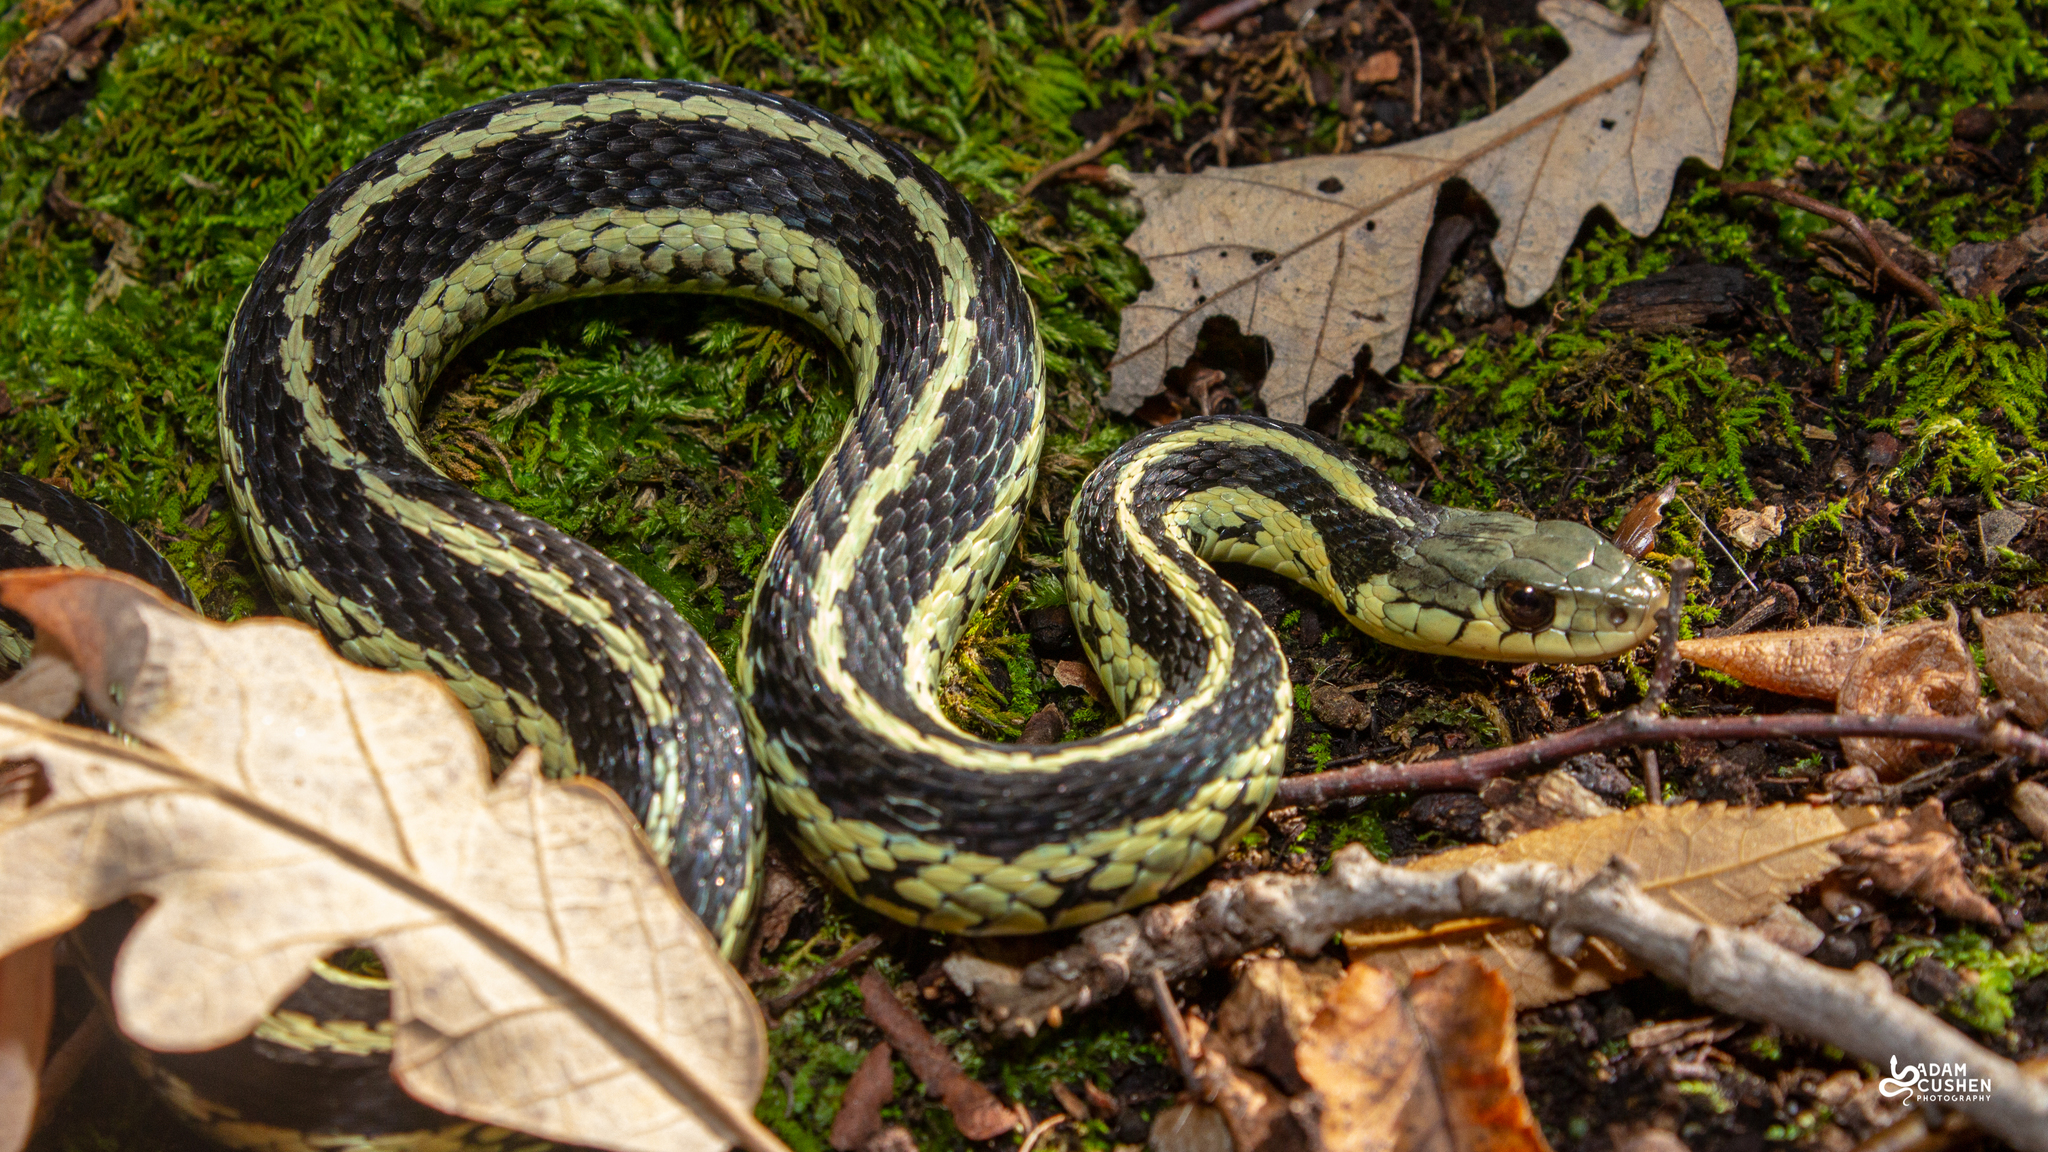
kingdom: Animalia
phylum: Chordata
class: Squamata
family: Colubridae
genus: Thamnophis
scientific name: Thamnophis sirtalis
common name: Common garter snake
